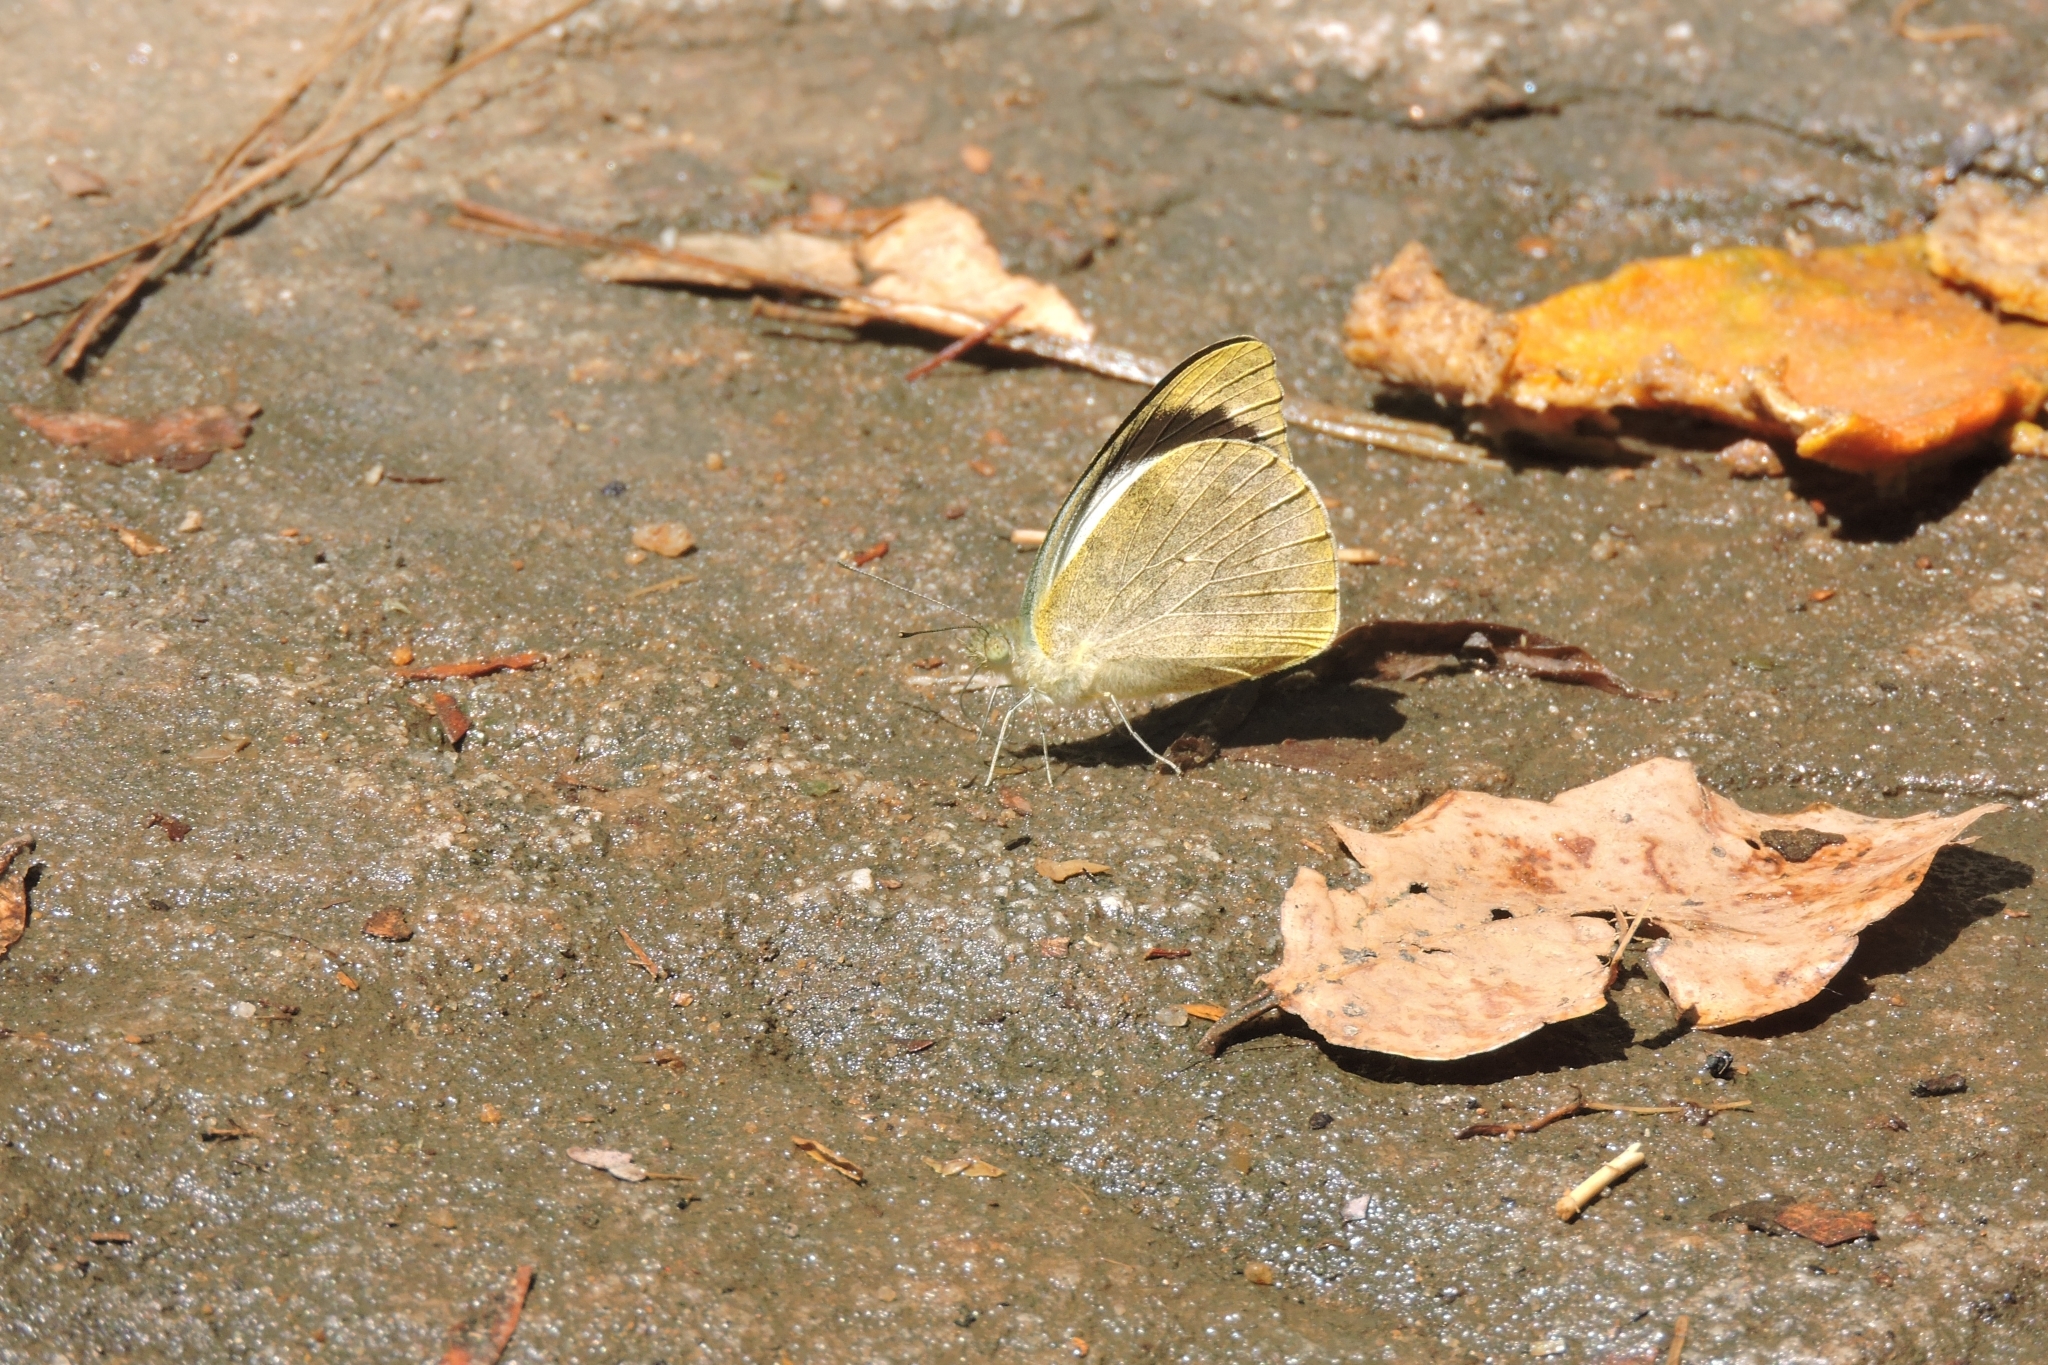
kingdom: Animalia
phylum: Arthropoda
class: Insecta
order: Lepidoptera
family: Pieridae
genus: Appias
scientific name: Appias indra
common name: Plain puffin
